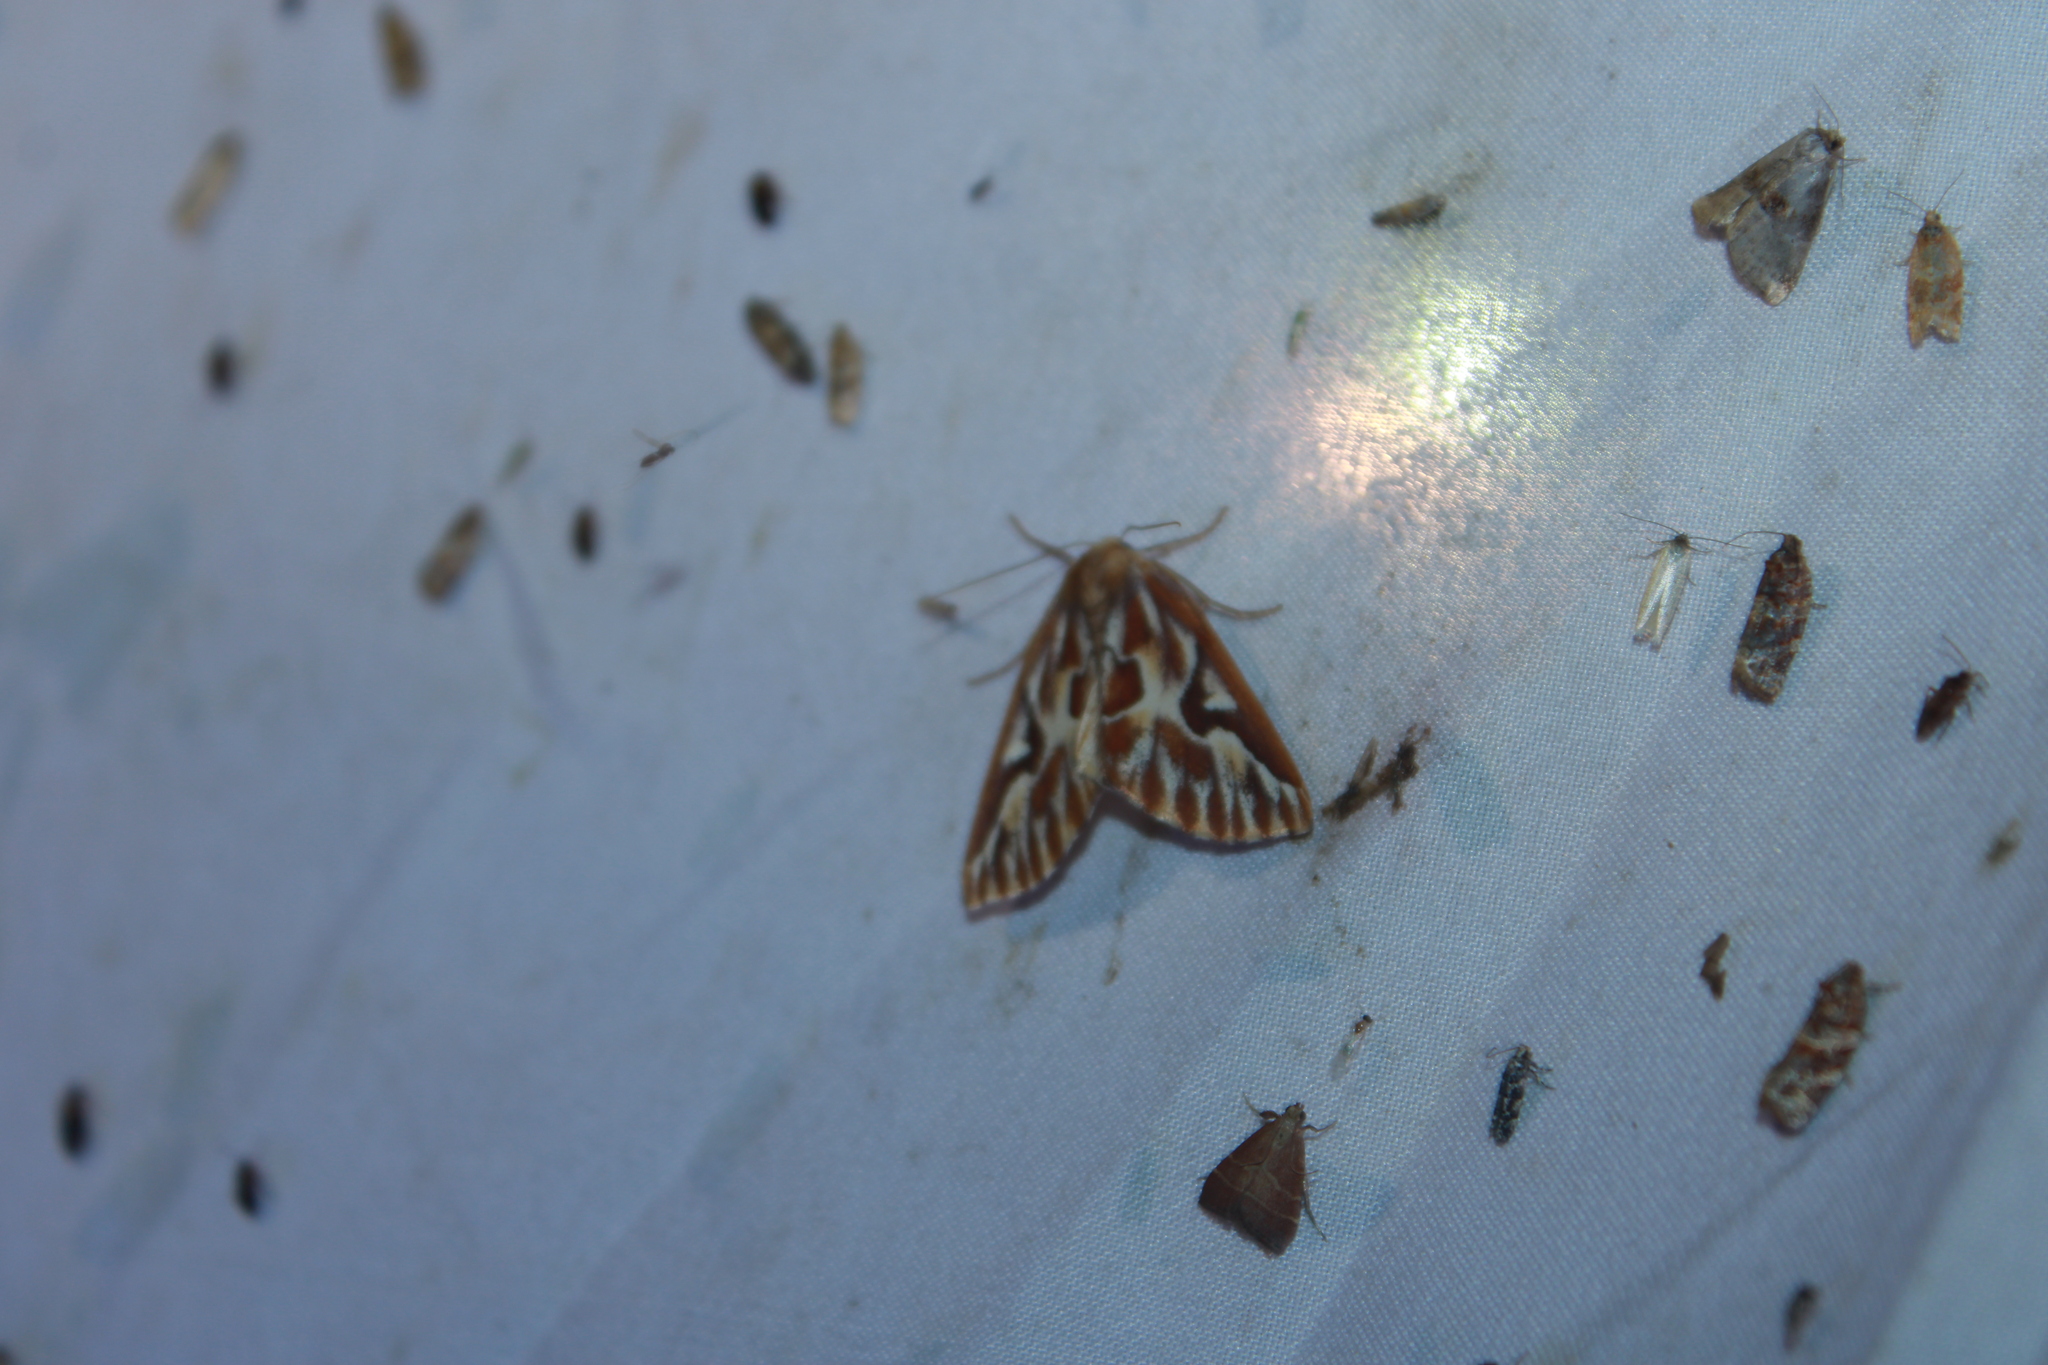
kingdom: Animalia
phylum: Arthropoda
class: Insecta
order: Lepidoptera
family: Geometridae
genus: Caripeta
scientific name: Caripeta piniata
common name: Northern pine looper moth
